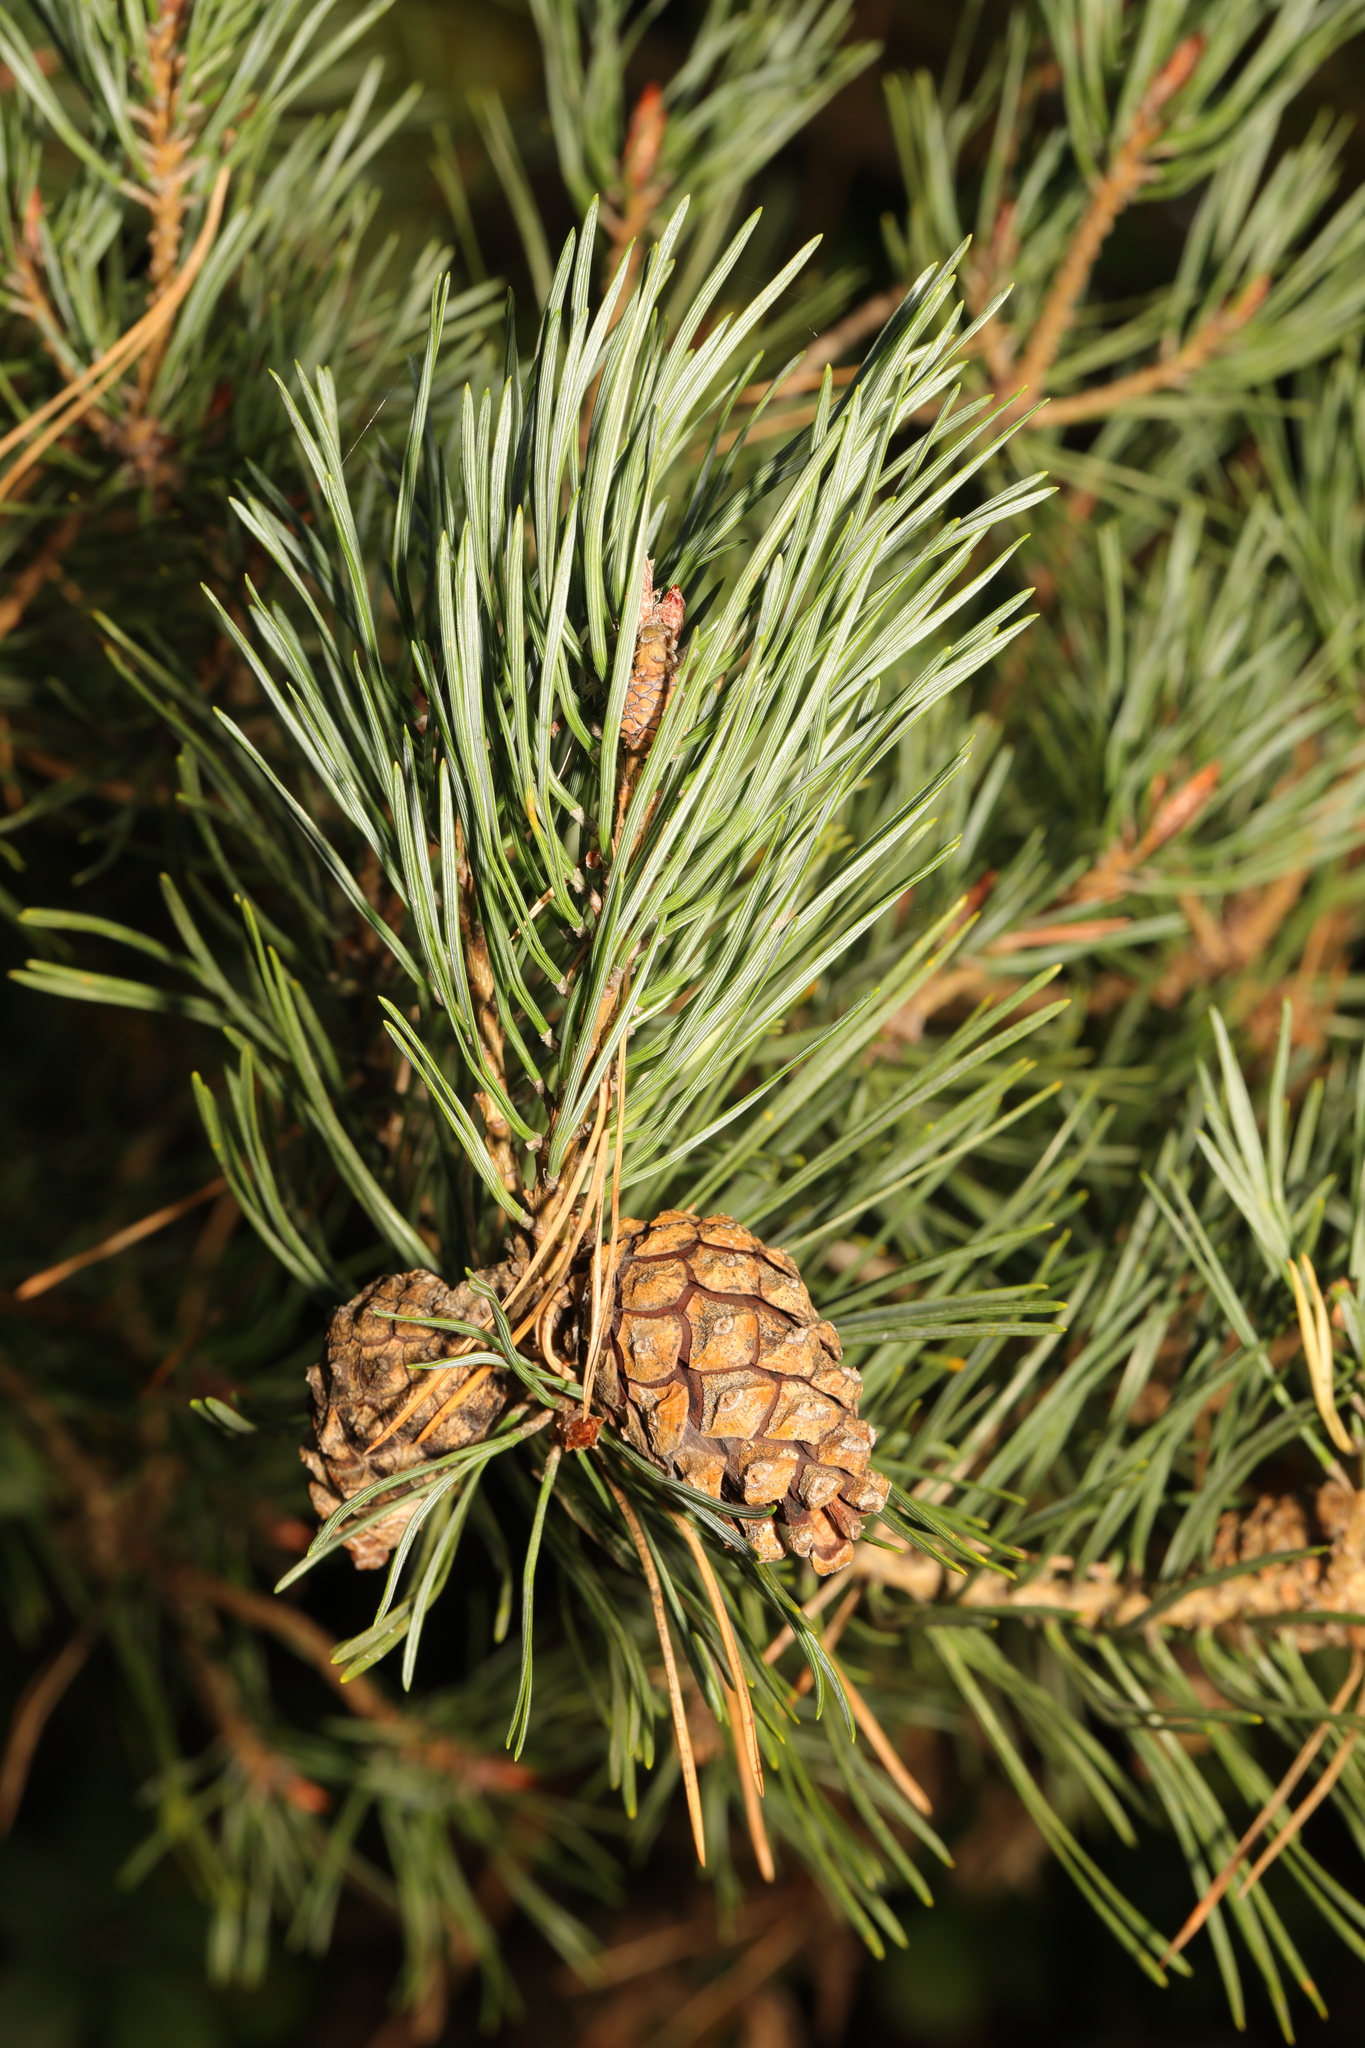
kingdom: Plantae
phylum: Tracheophyta
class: Pinopsida
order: Pinales
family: Pinaceae
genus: Pinus
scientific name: Pinus sylvestris
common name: Scots pine
